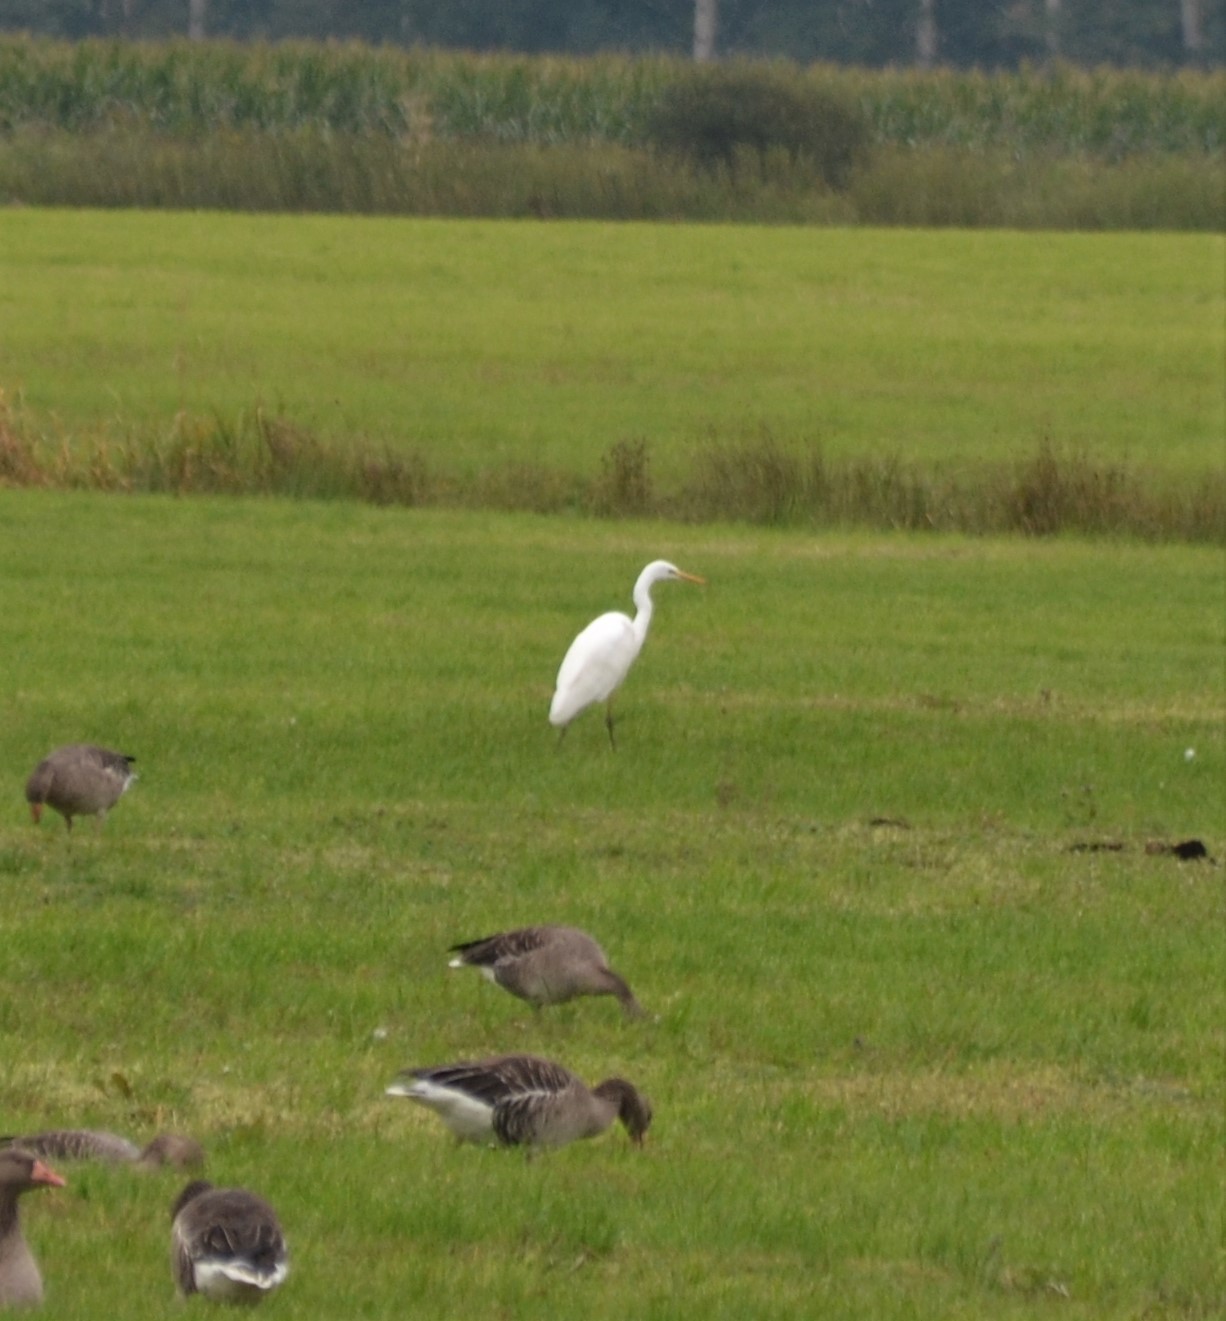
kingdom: Animalia
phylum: Chordata
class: Aves
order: Pelecaniformes
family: Ardeidae
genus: Ardea
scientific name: Ardea alba
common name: Great egret
